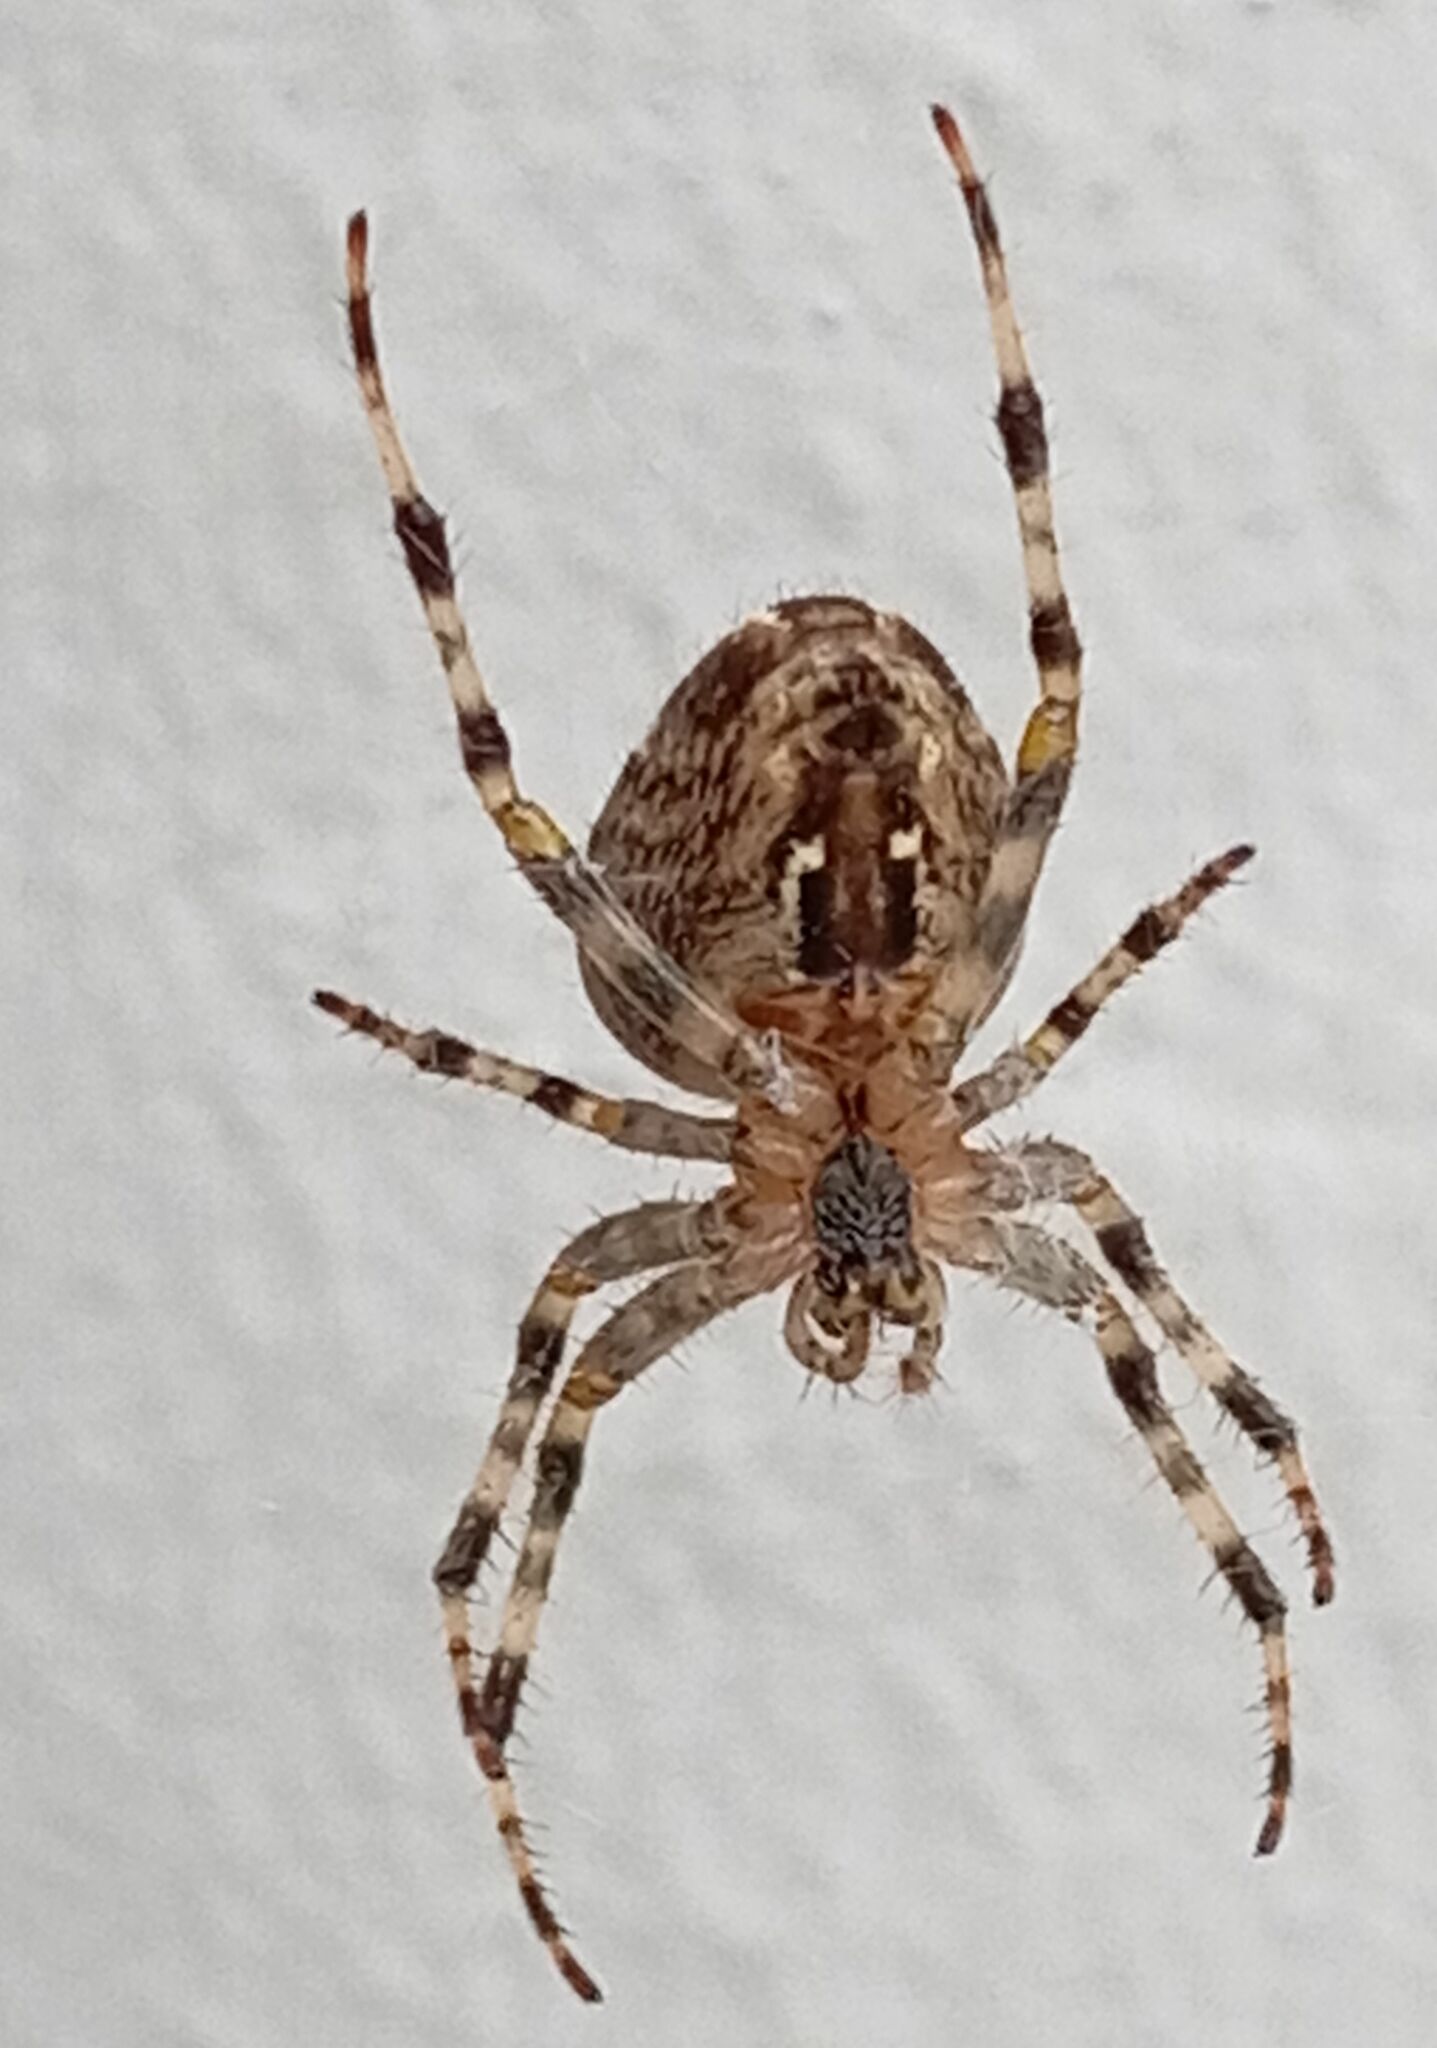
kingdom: Animalia
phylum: Arthropoda
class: Arachnida
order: Araneae
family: Araneidae
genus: Araneus
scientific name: Araneus diadematus
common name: Cross orbweaver
